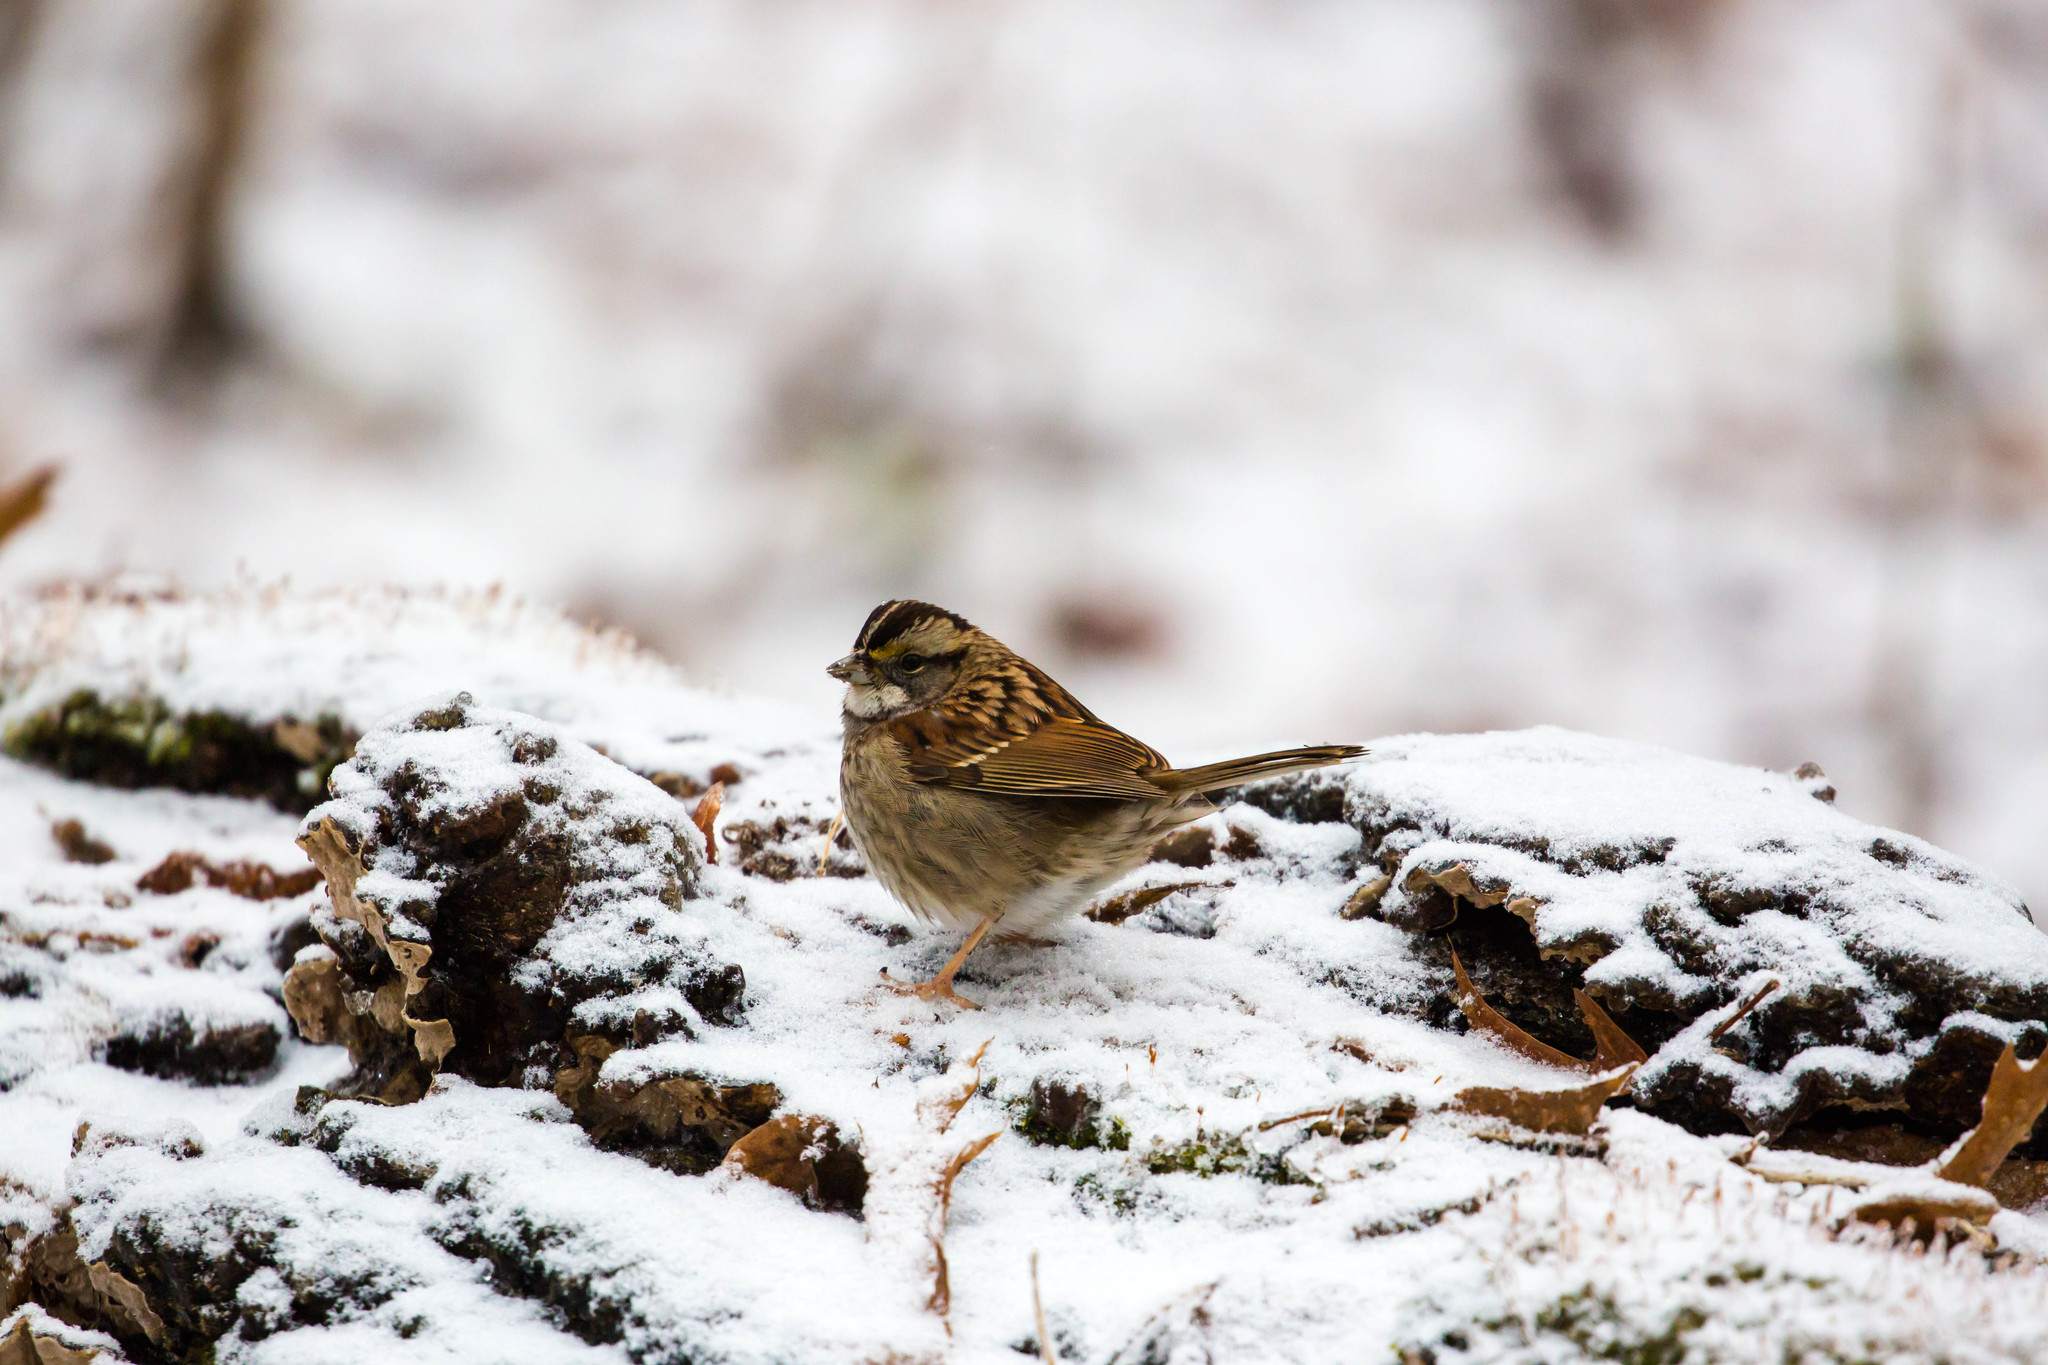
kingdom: Animalia
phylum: Chordata
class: Aves
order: Passeriformes
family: Passerellidae
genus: Zonotrichia
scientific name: Zonotrichia albicollis
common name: White-throated sparrow
